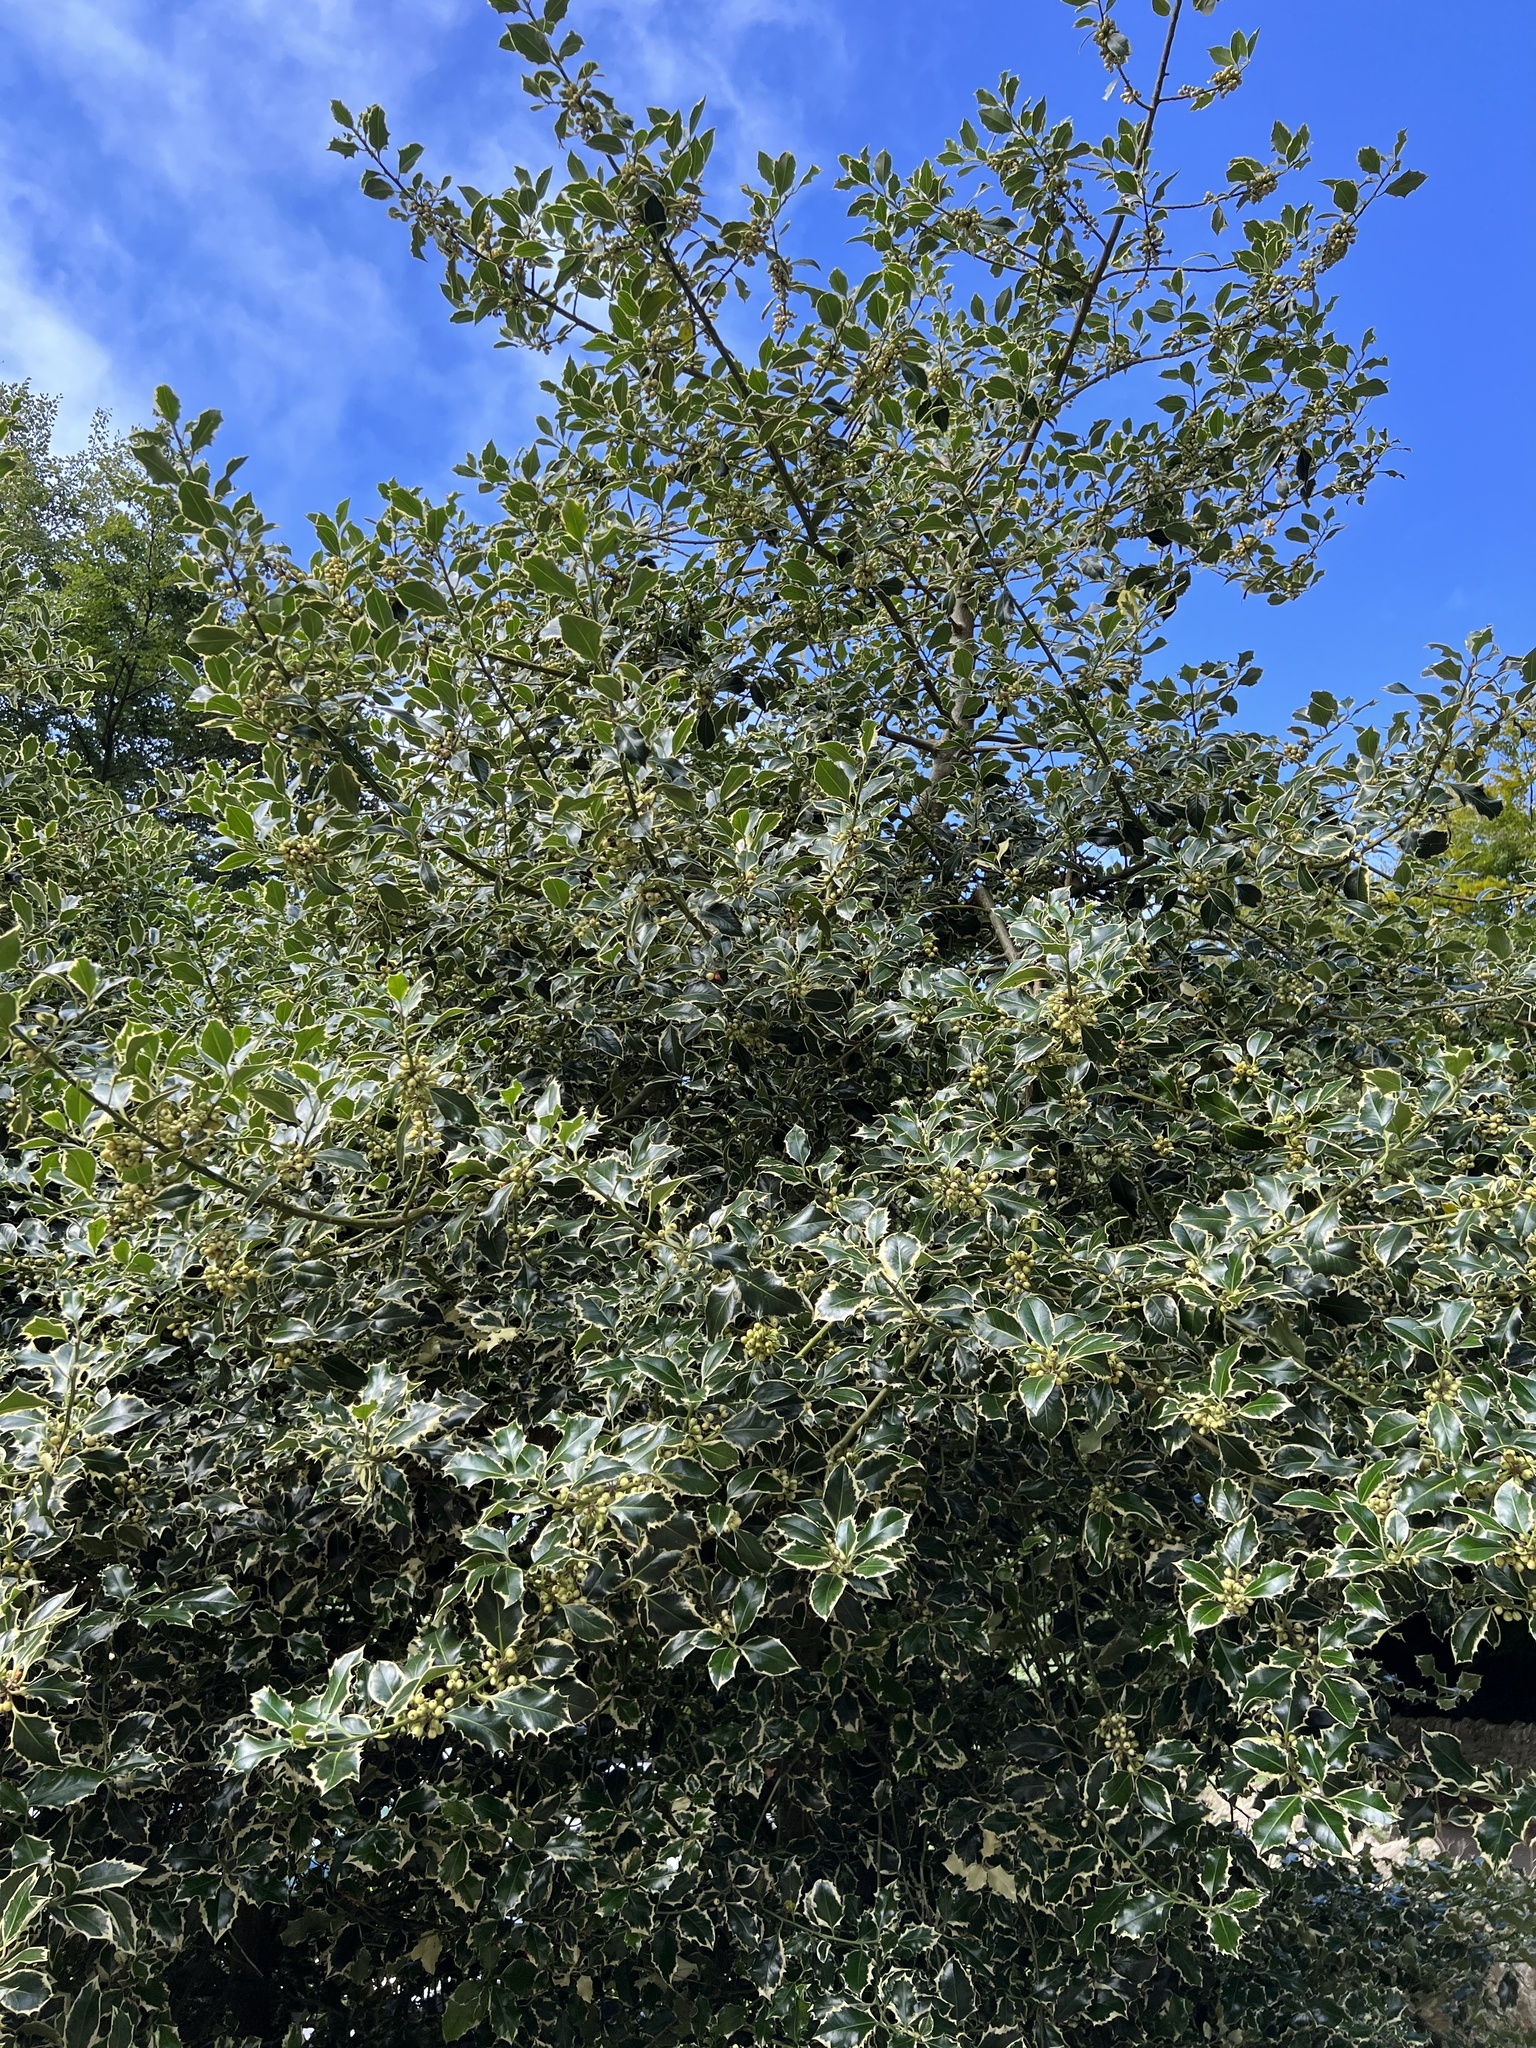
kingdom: Plantae
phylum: Tracheophyta
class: Magnoliopsida
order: Aquifoliales
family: Aquifoliaceae
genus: Ilex
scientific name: Ilex aquifolium
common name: English holly
